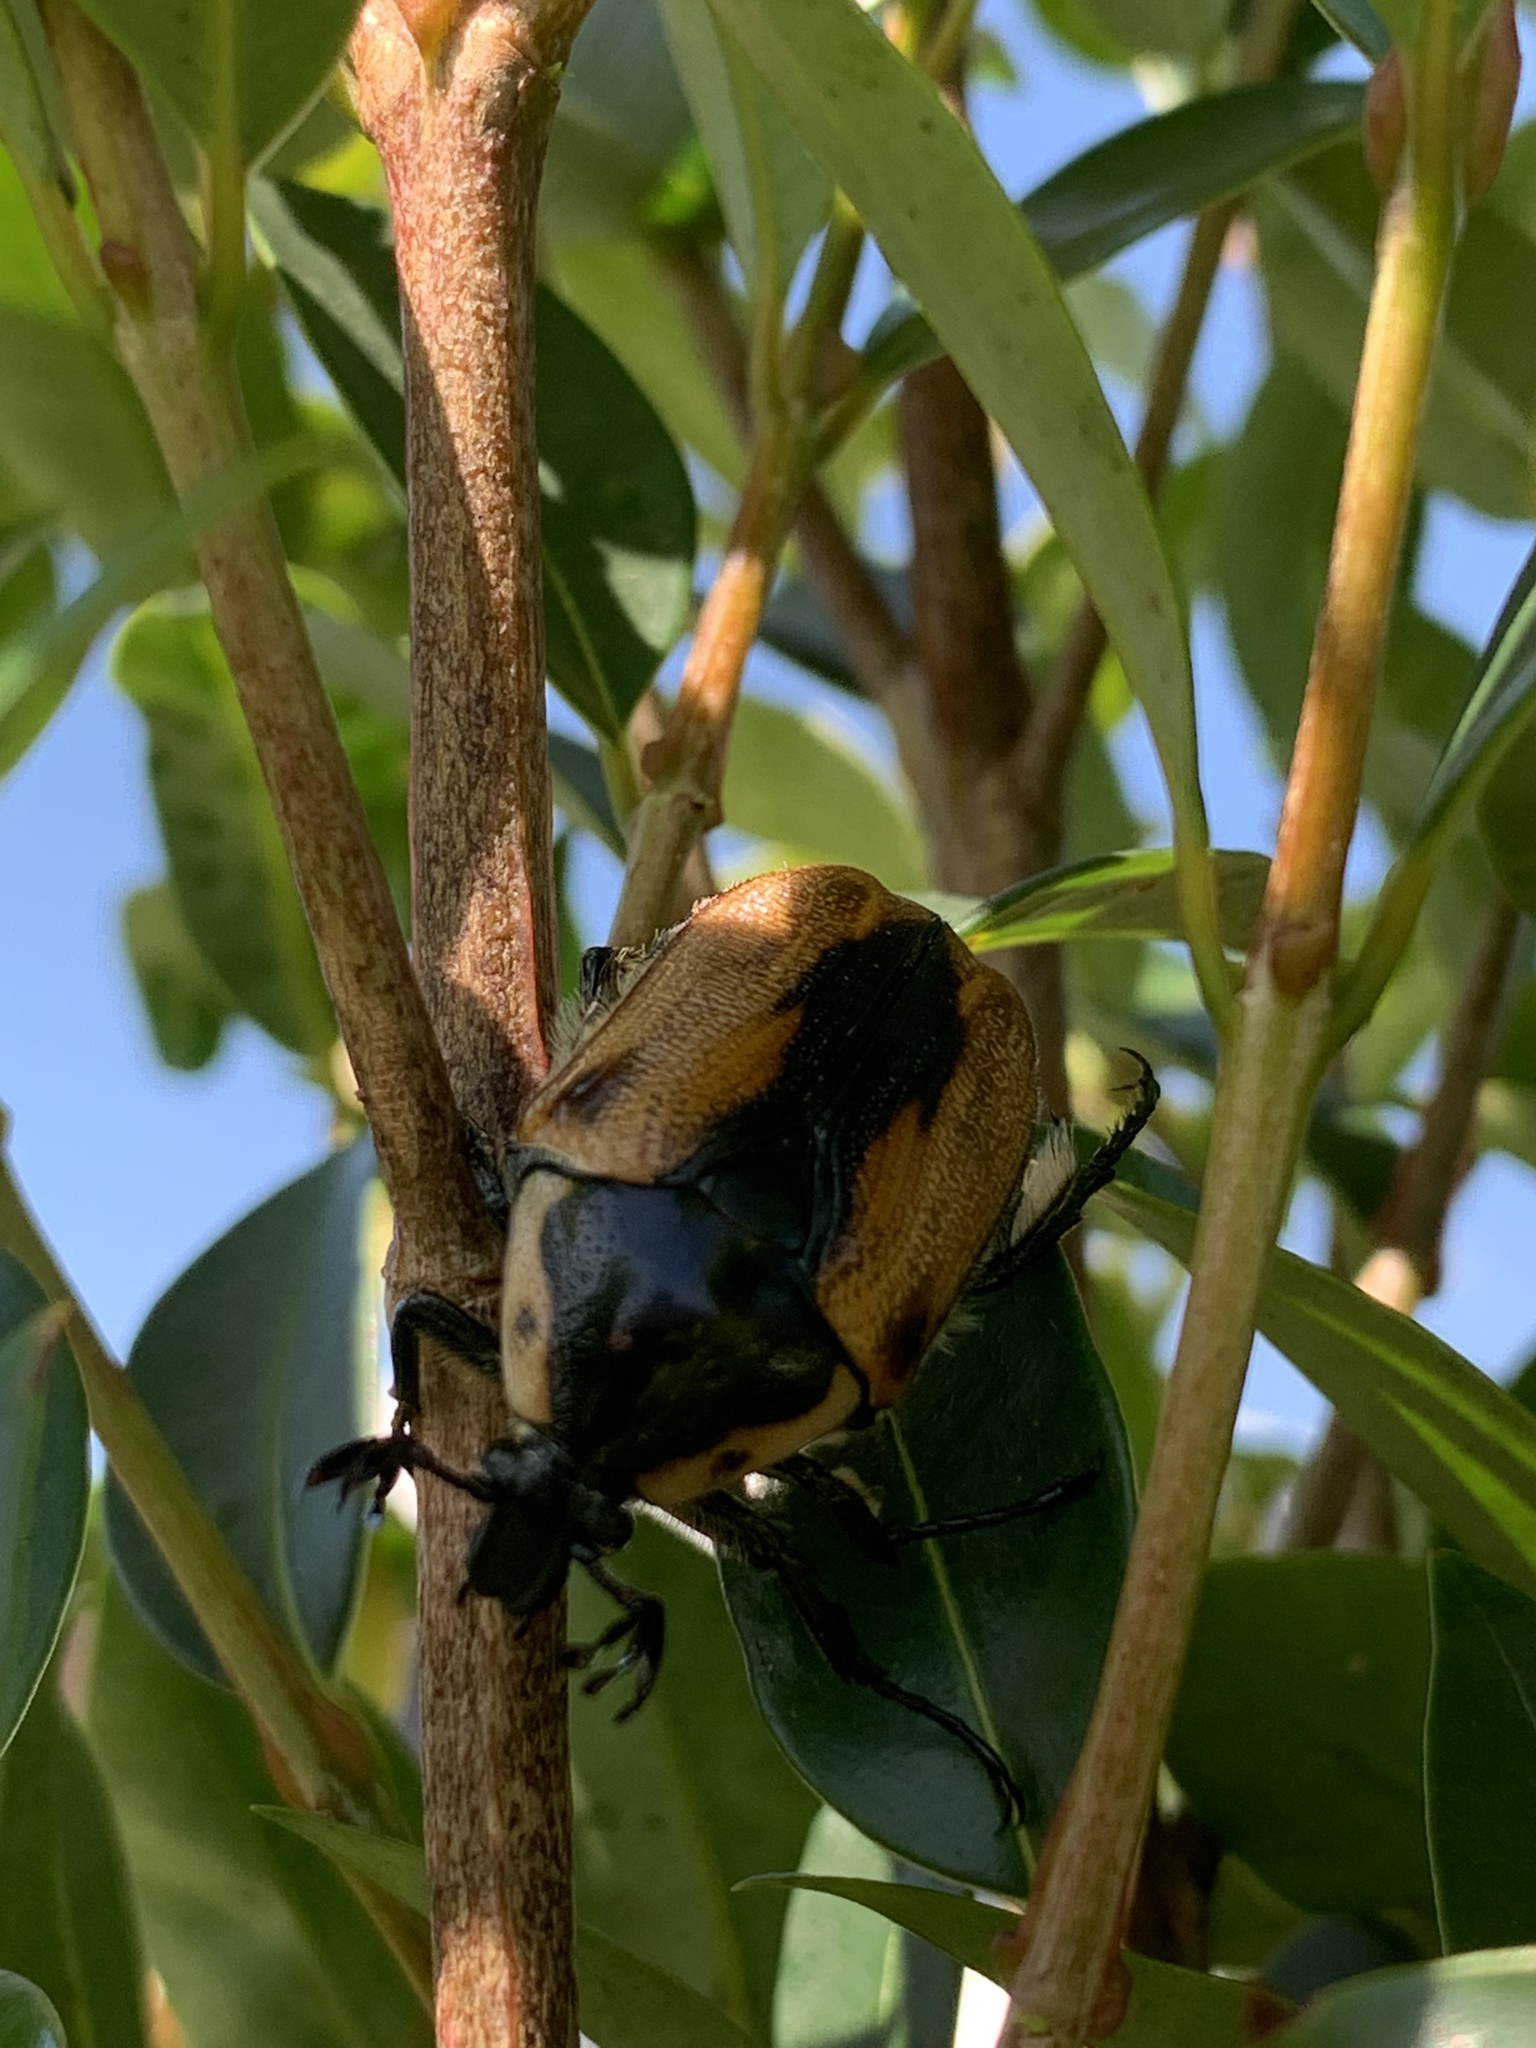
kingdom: Animalia
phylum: Arthropoda
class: Insecta
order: Coleoptera
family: Scarabaeidae
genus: Chondropyga
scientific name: Chondropyga dorsalis
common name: Cowboy beetle
